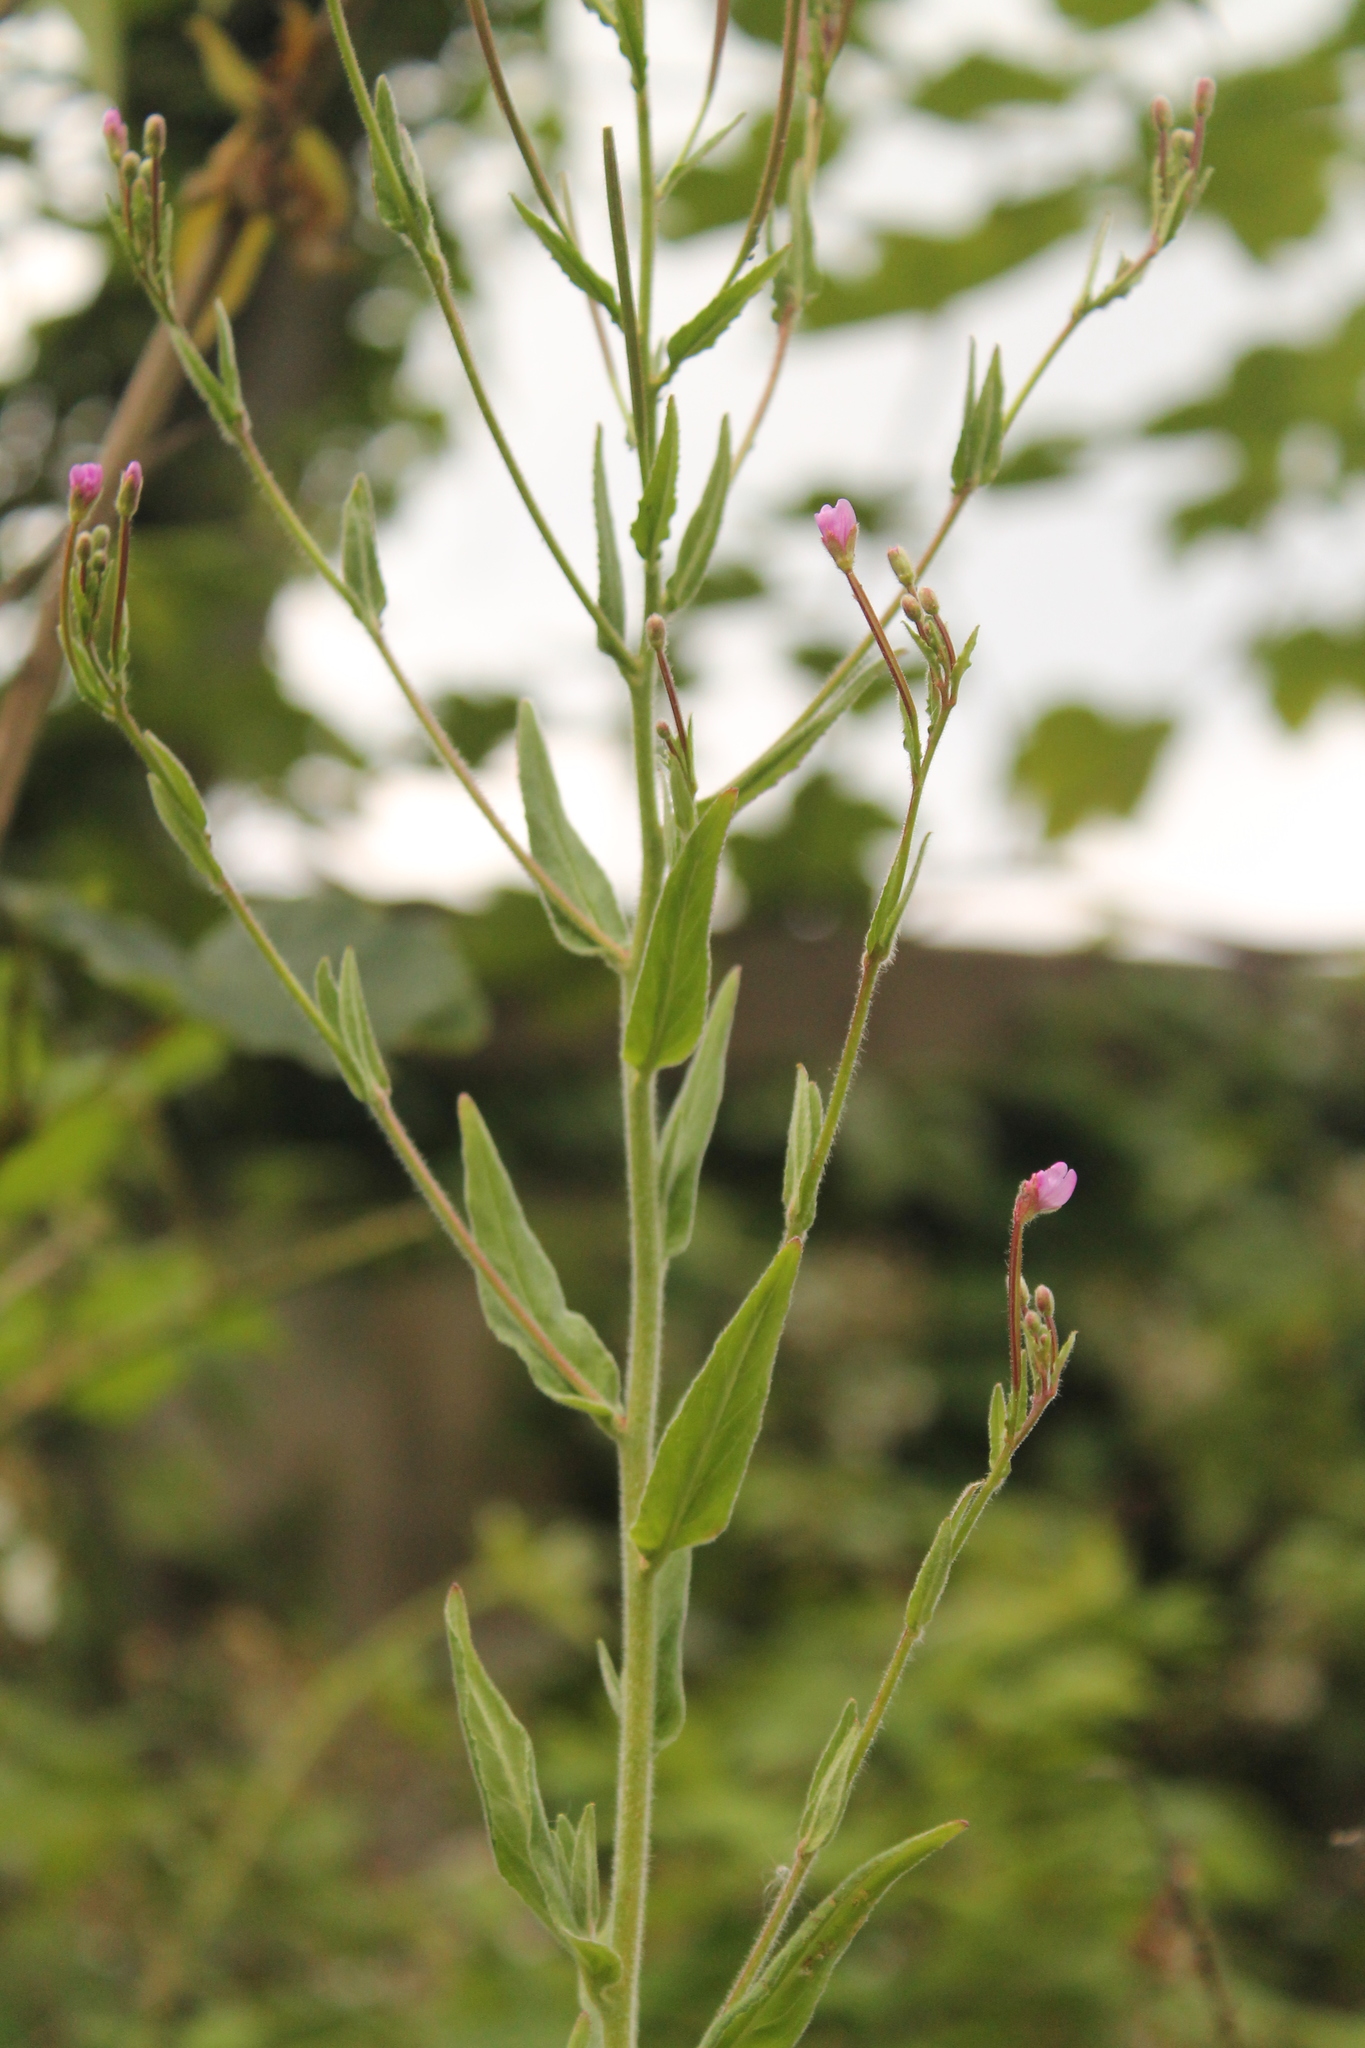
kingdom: Plantae
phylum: Tracheophyta
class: Magnoliopsida
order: Myrtales
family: Onagraceae
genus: Epilobium
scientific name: Epilobium parviflorum
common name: Hoary willowherb
